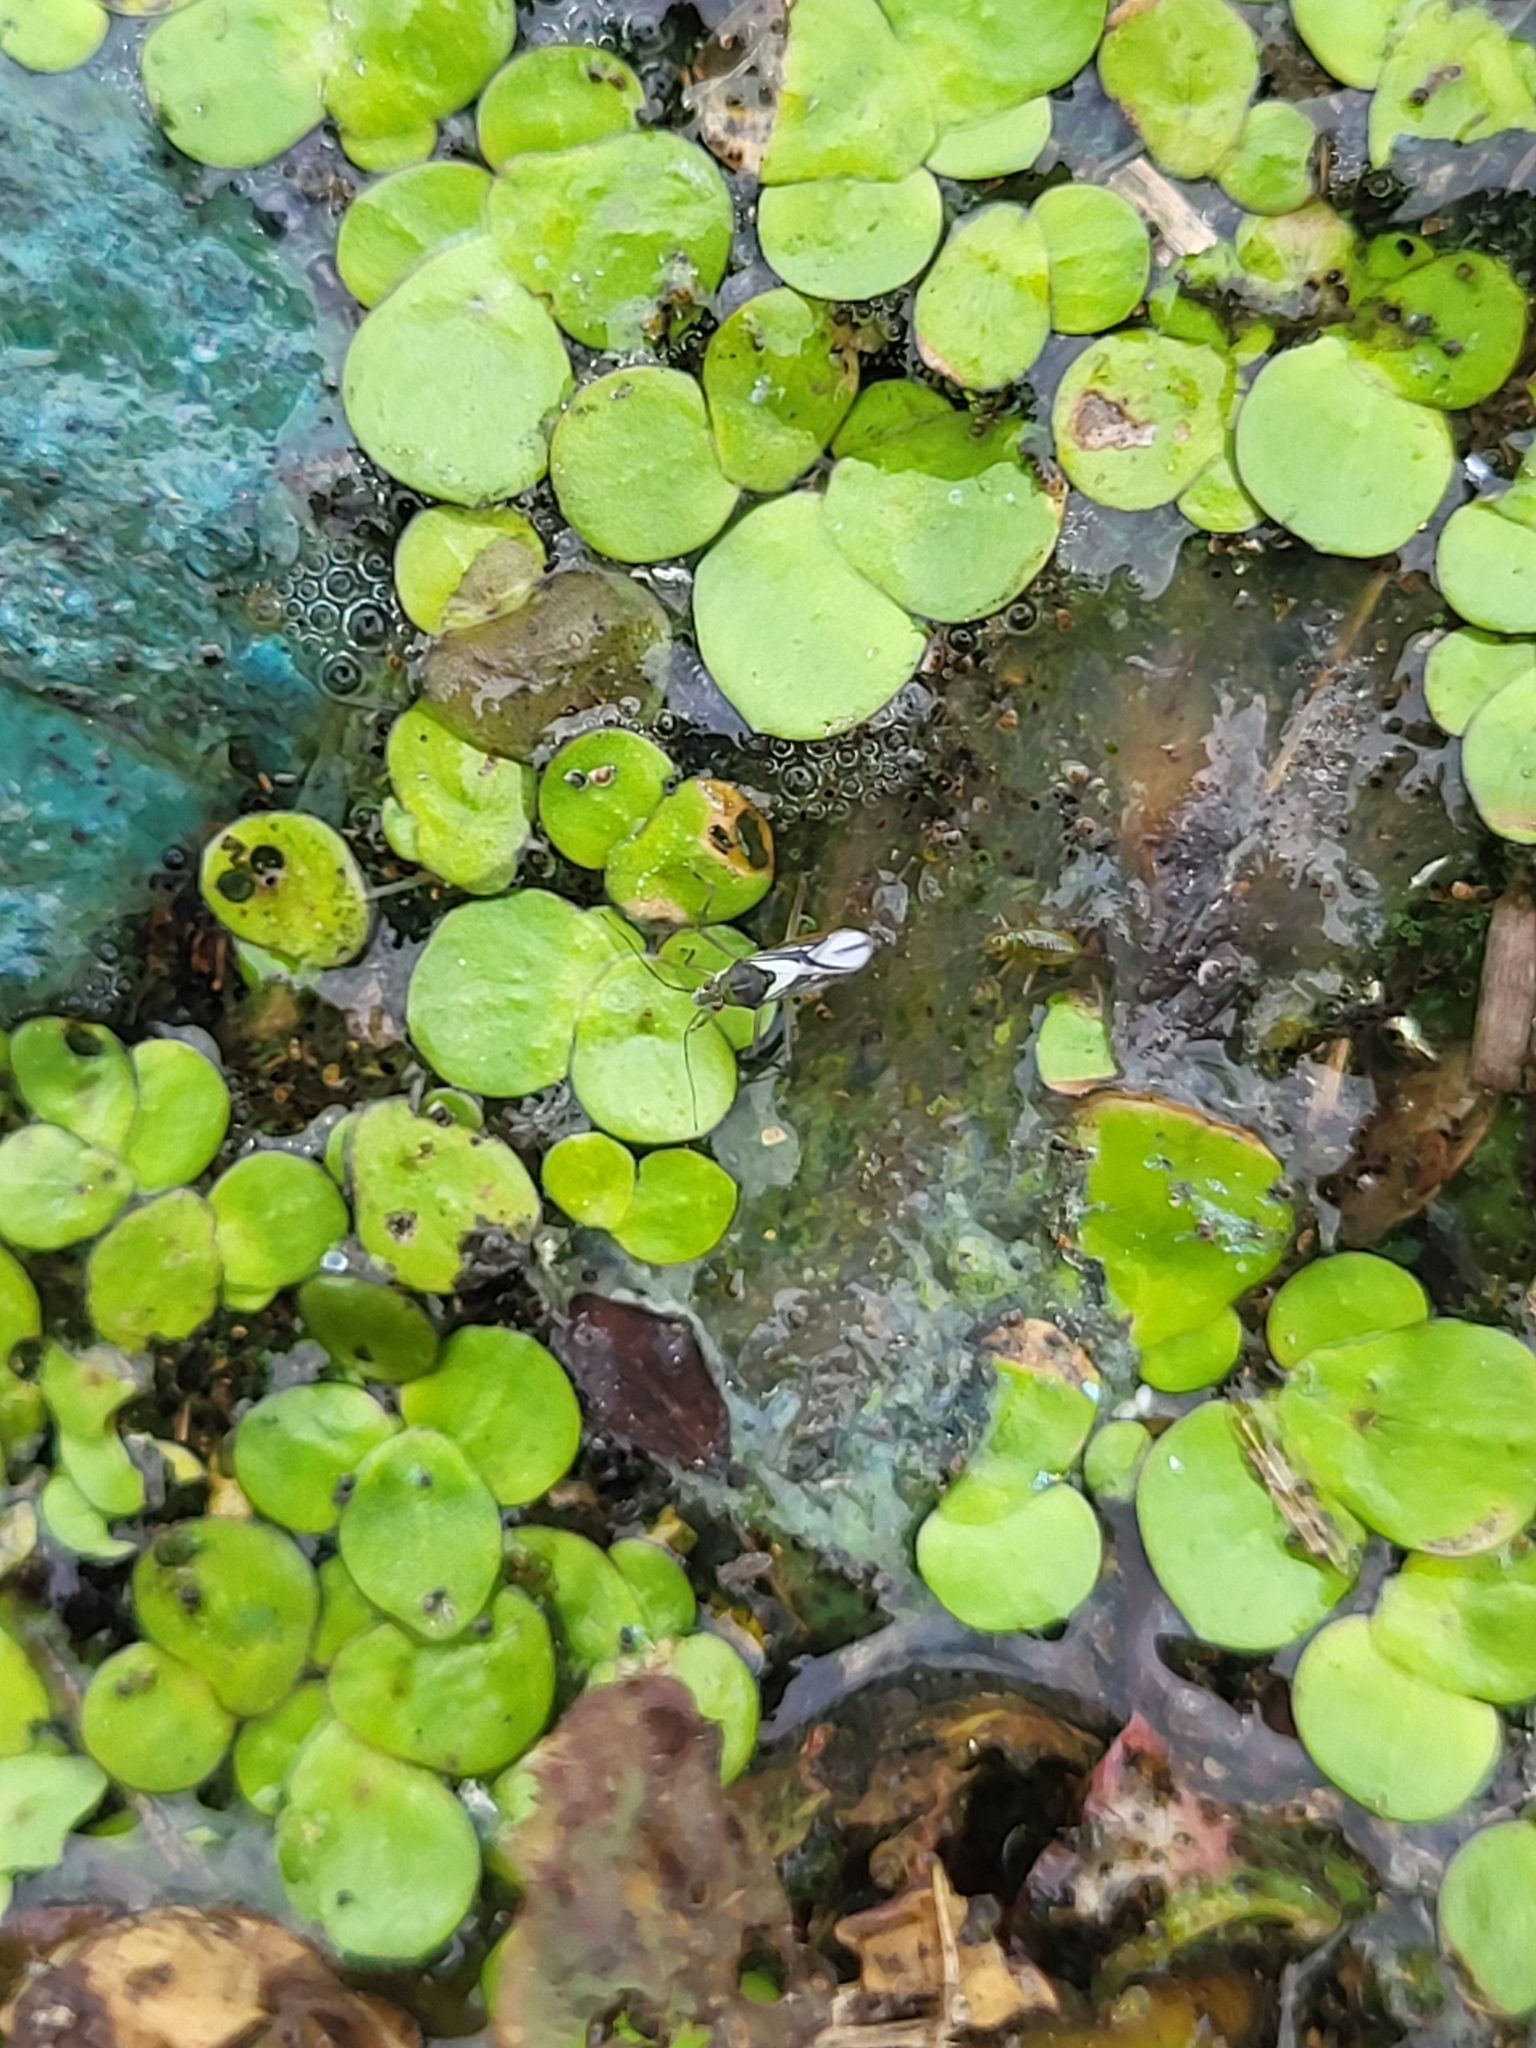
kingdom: Animalia
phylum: Arthropoda
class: Insecta
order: Hemiptera
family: Mesoveliidae
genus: Mesovelia
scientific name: Mesovelia mulsanti
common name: Water treaders
